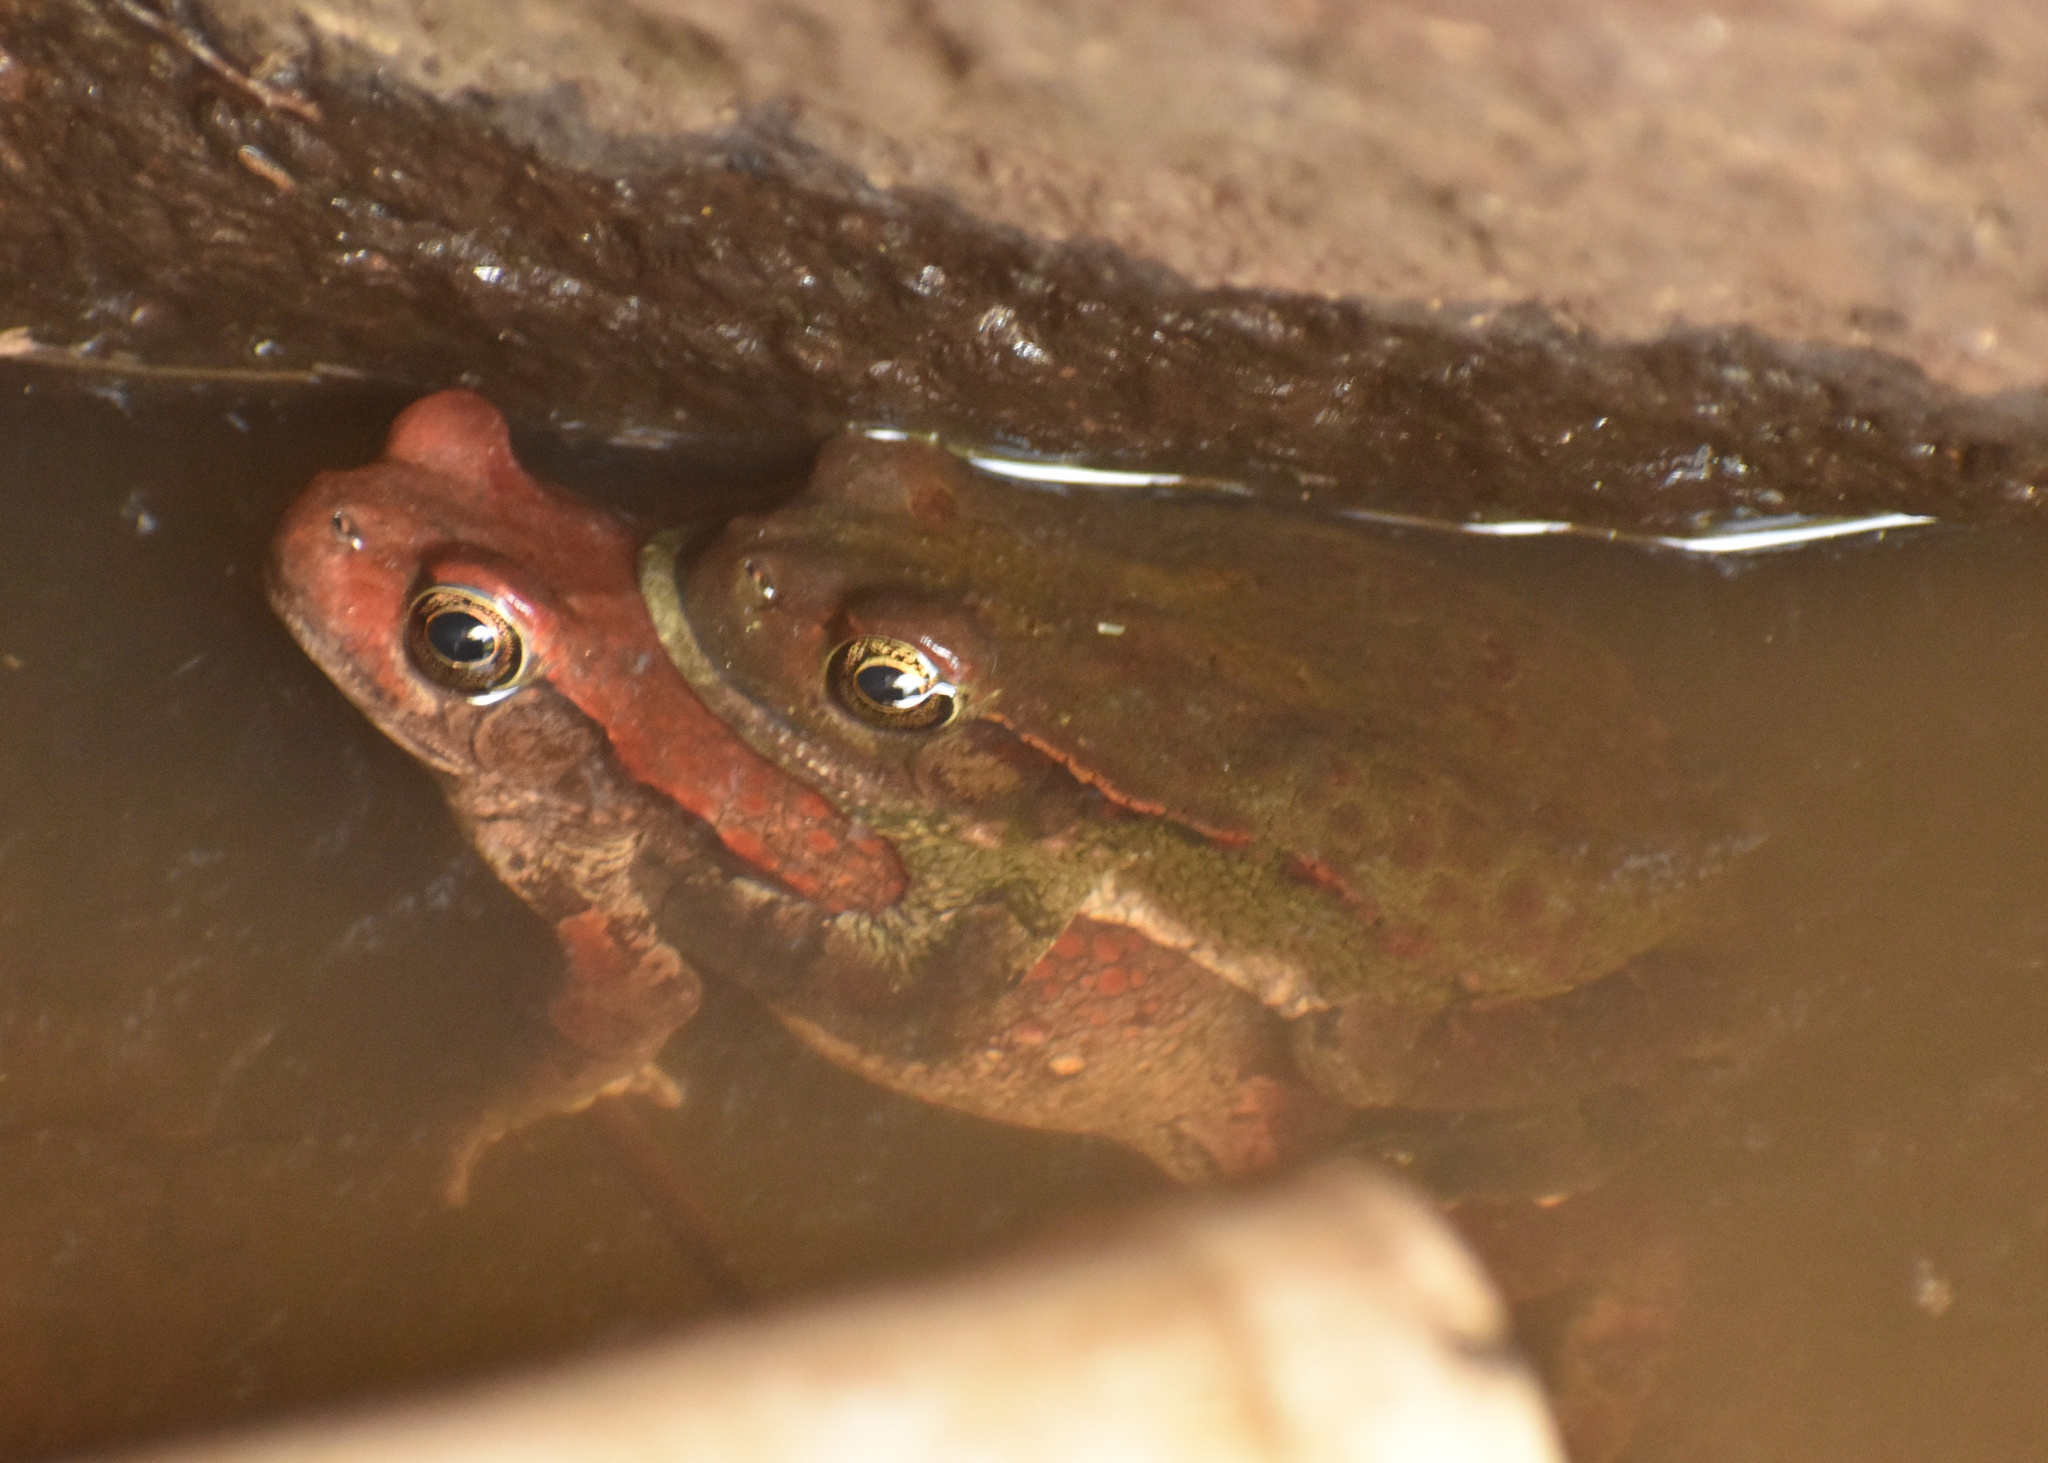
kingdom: Animalia
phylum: Chordata
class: Amphibia
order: Anura
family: Bufonidae
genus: Schismaderma
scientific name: Schismaderma carens
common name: African split-skin toad
